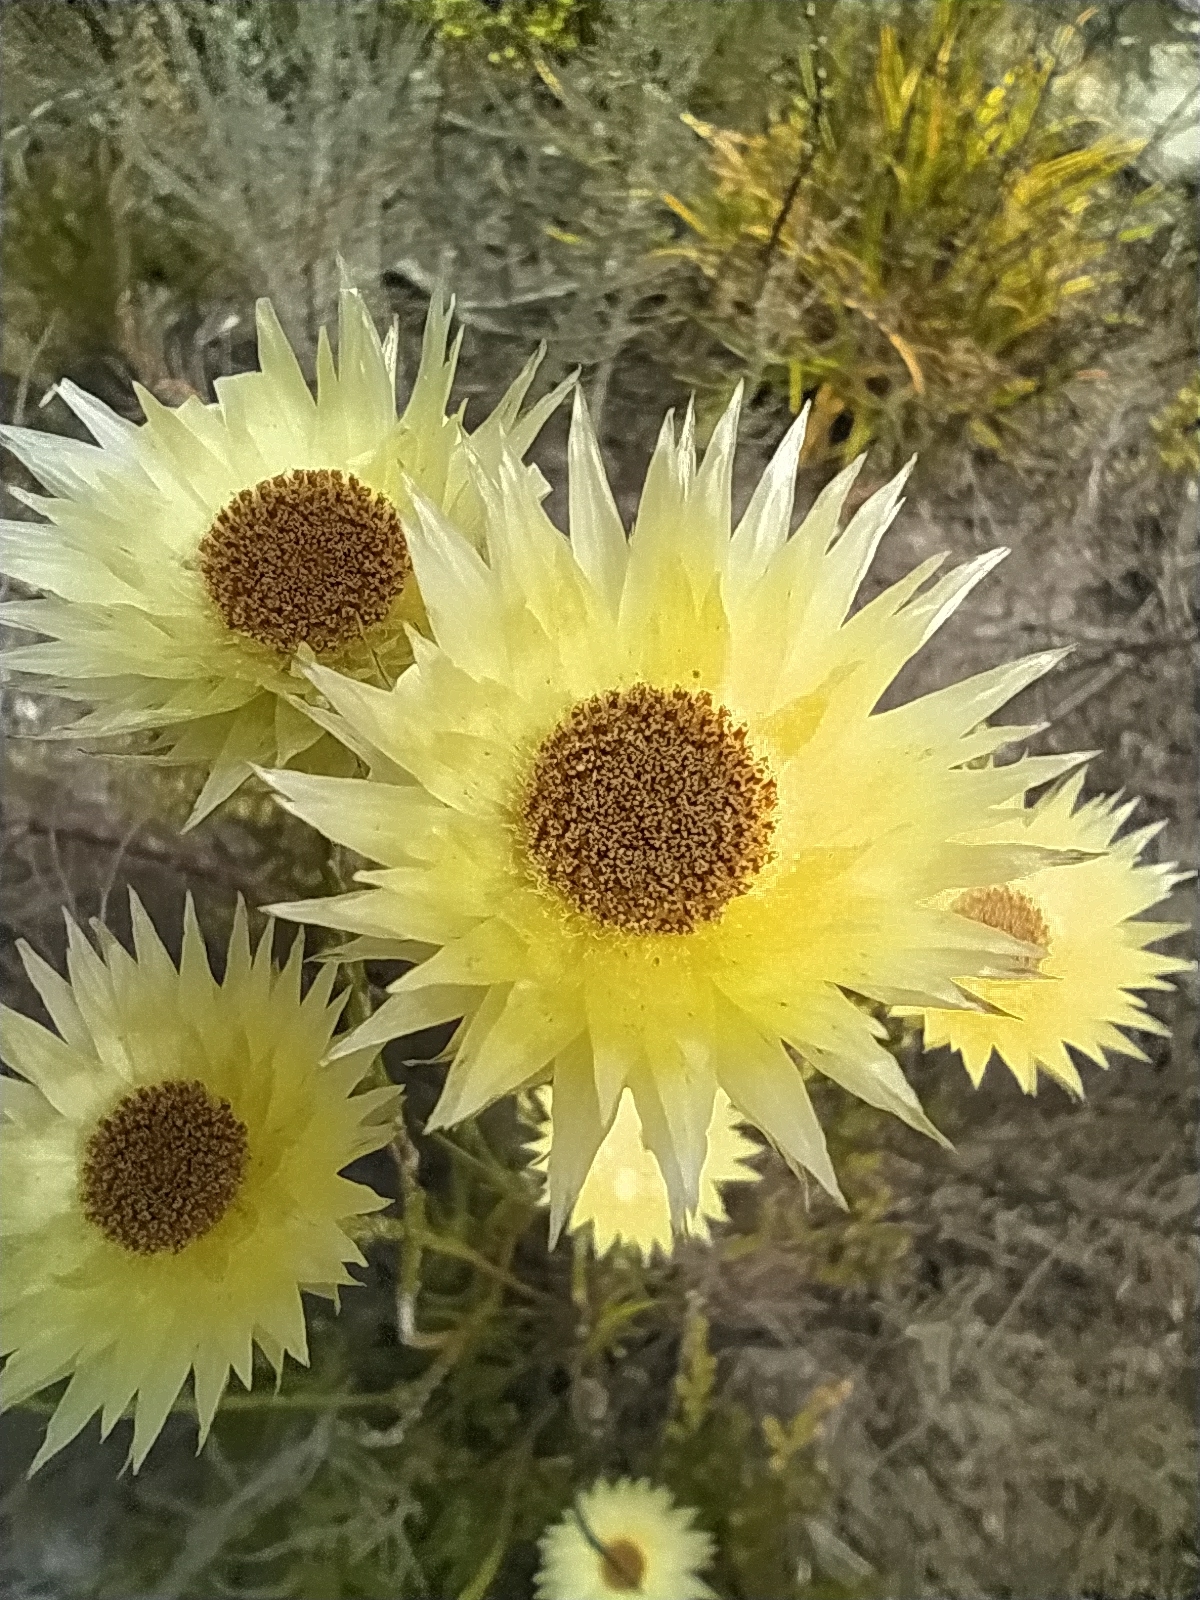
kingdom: Plantae
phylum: Tracheophyta
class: Magnoliopsida
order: Asterales
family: Asteraceae
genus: Edmondia
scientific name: Edmondia sesamoides
